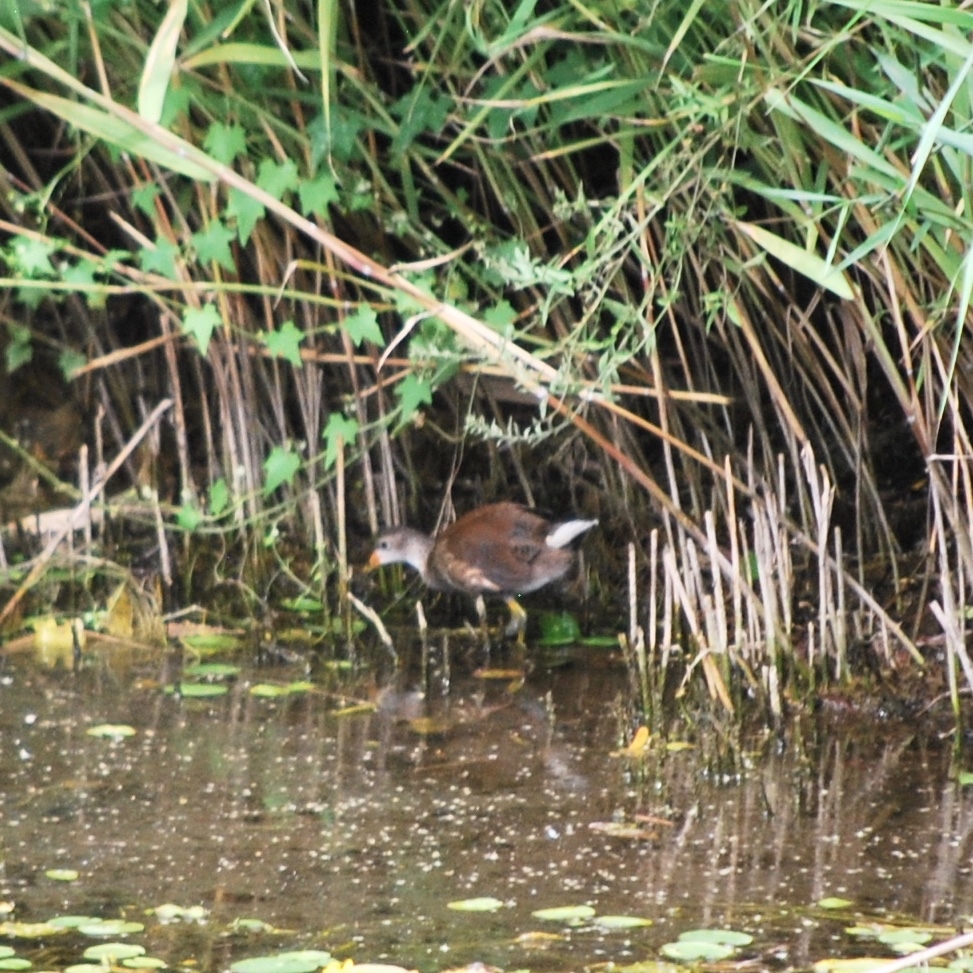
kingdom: Animalia
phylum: Chordata
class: Aves
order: Gruiformes
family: Rallidae
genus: Gallinula
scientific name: Gallinula chloropus
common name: Common moorhen
